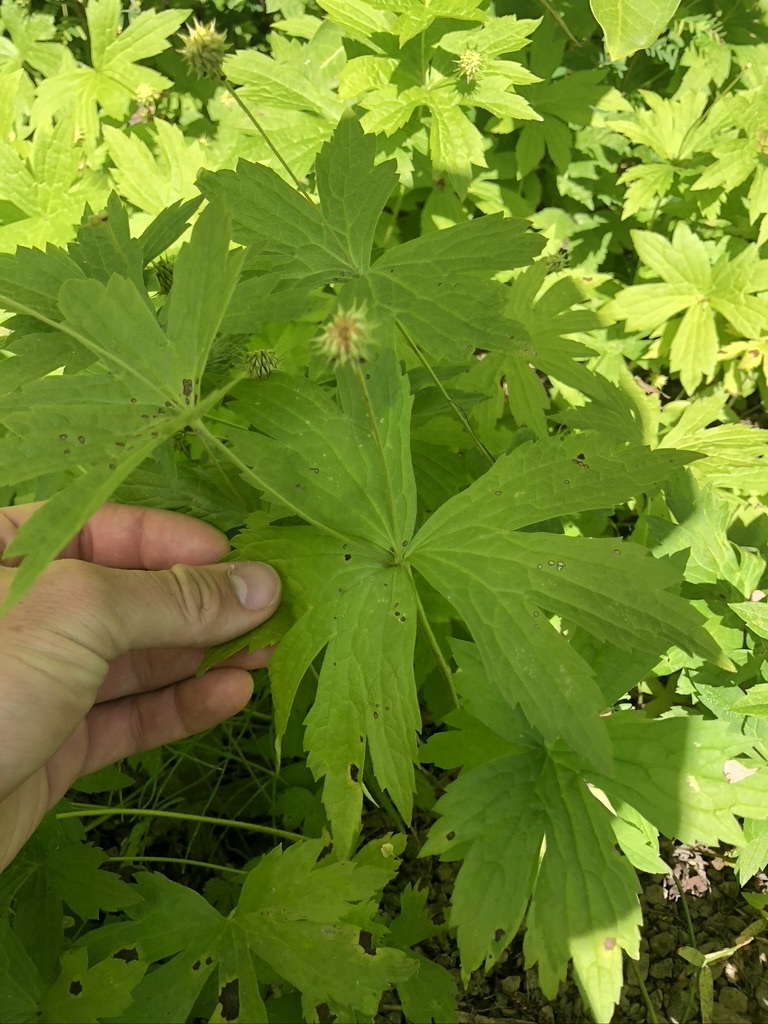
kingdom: Plantae
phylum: Tracheophyta
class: Magnoliopsida
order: Ranunculales
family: Ranunculaceae
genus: Anemonastrum
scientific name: Anemonastrum canadense
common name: Canada anemone
